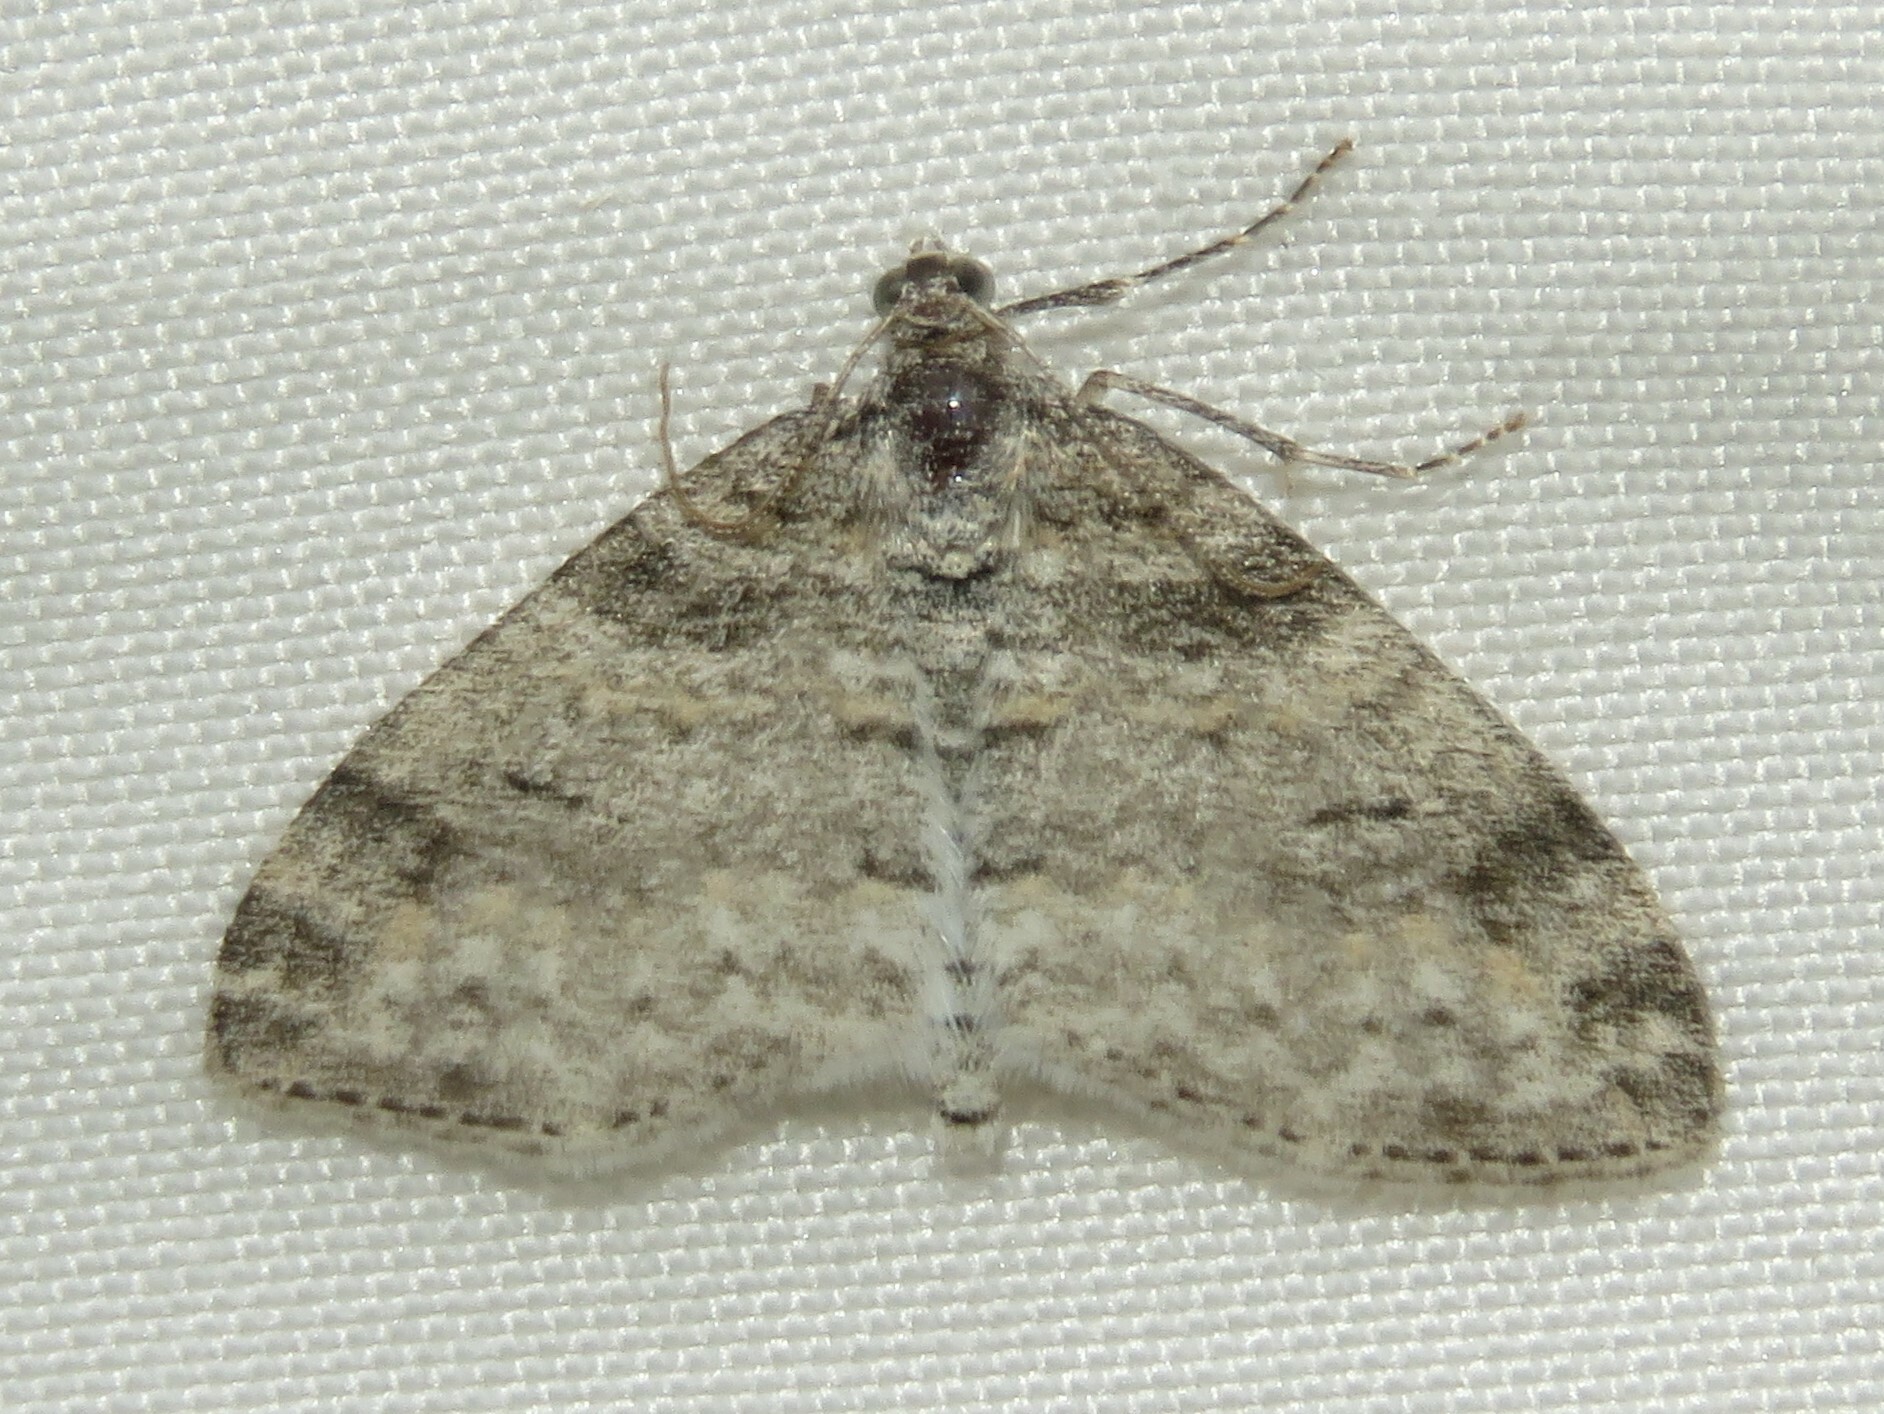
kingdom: Animalia
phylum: Arthropoda
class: Insecta
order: Lepidoptera
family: Geometridae
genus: Lobophora
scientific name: Lobophora nivigerata
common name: Powdered bigwing
